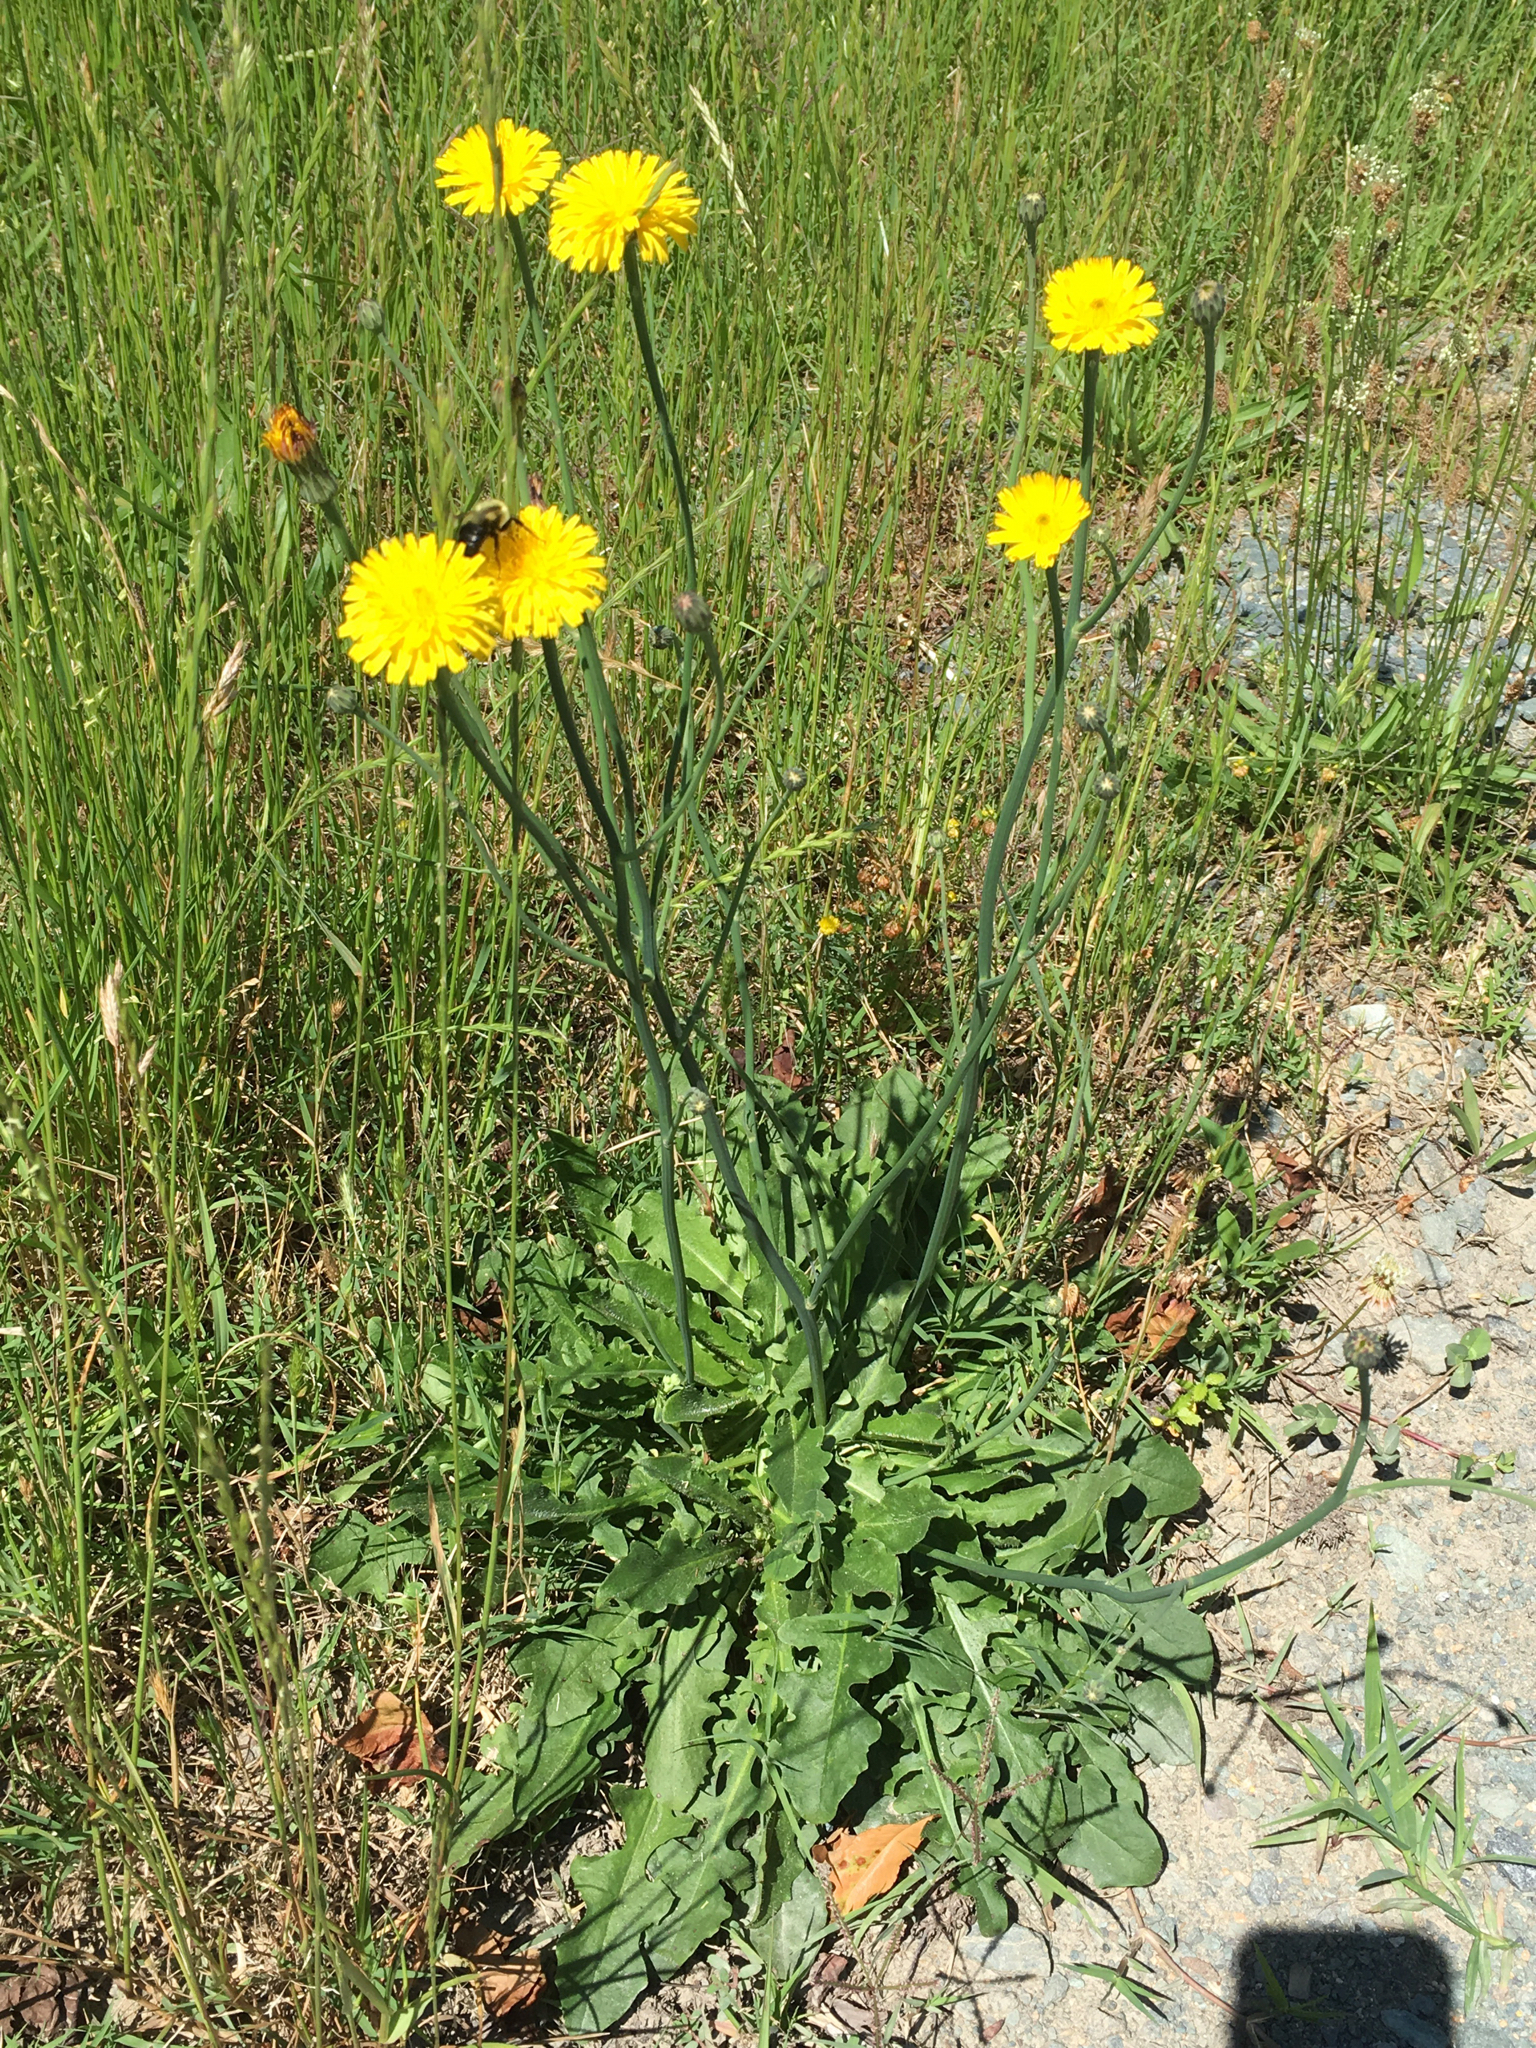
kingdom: Plantae
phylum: Tracheophyta
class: Magnoliopsida
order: Asterales
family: Asteraceae
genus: Hypochaeris
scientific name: Hypochaeris radicata
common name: Flatweed
